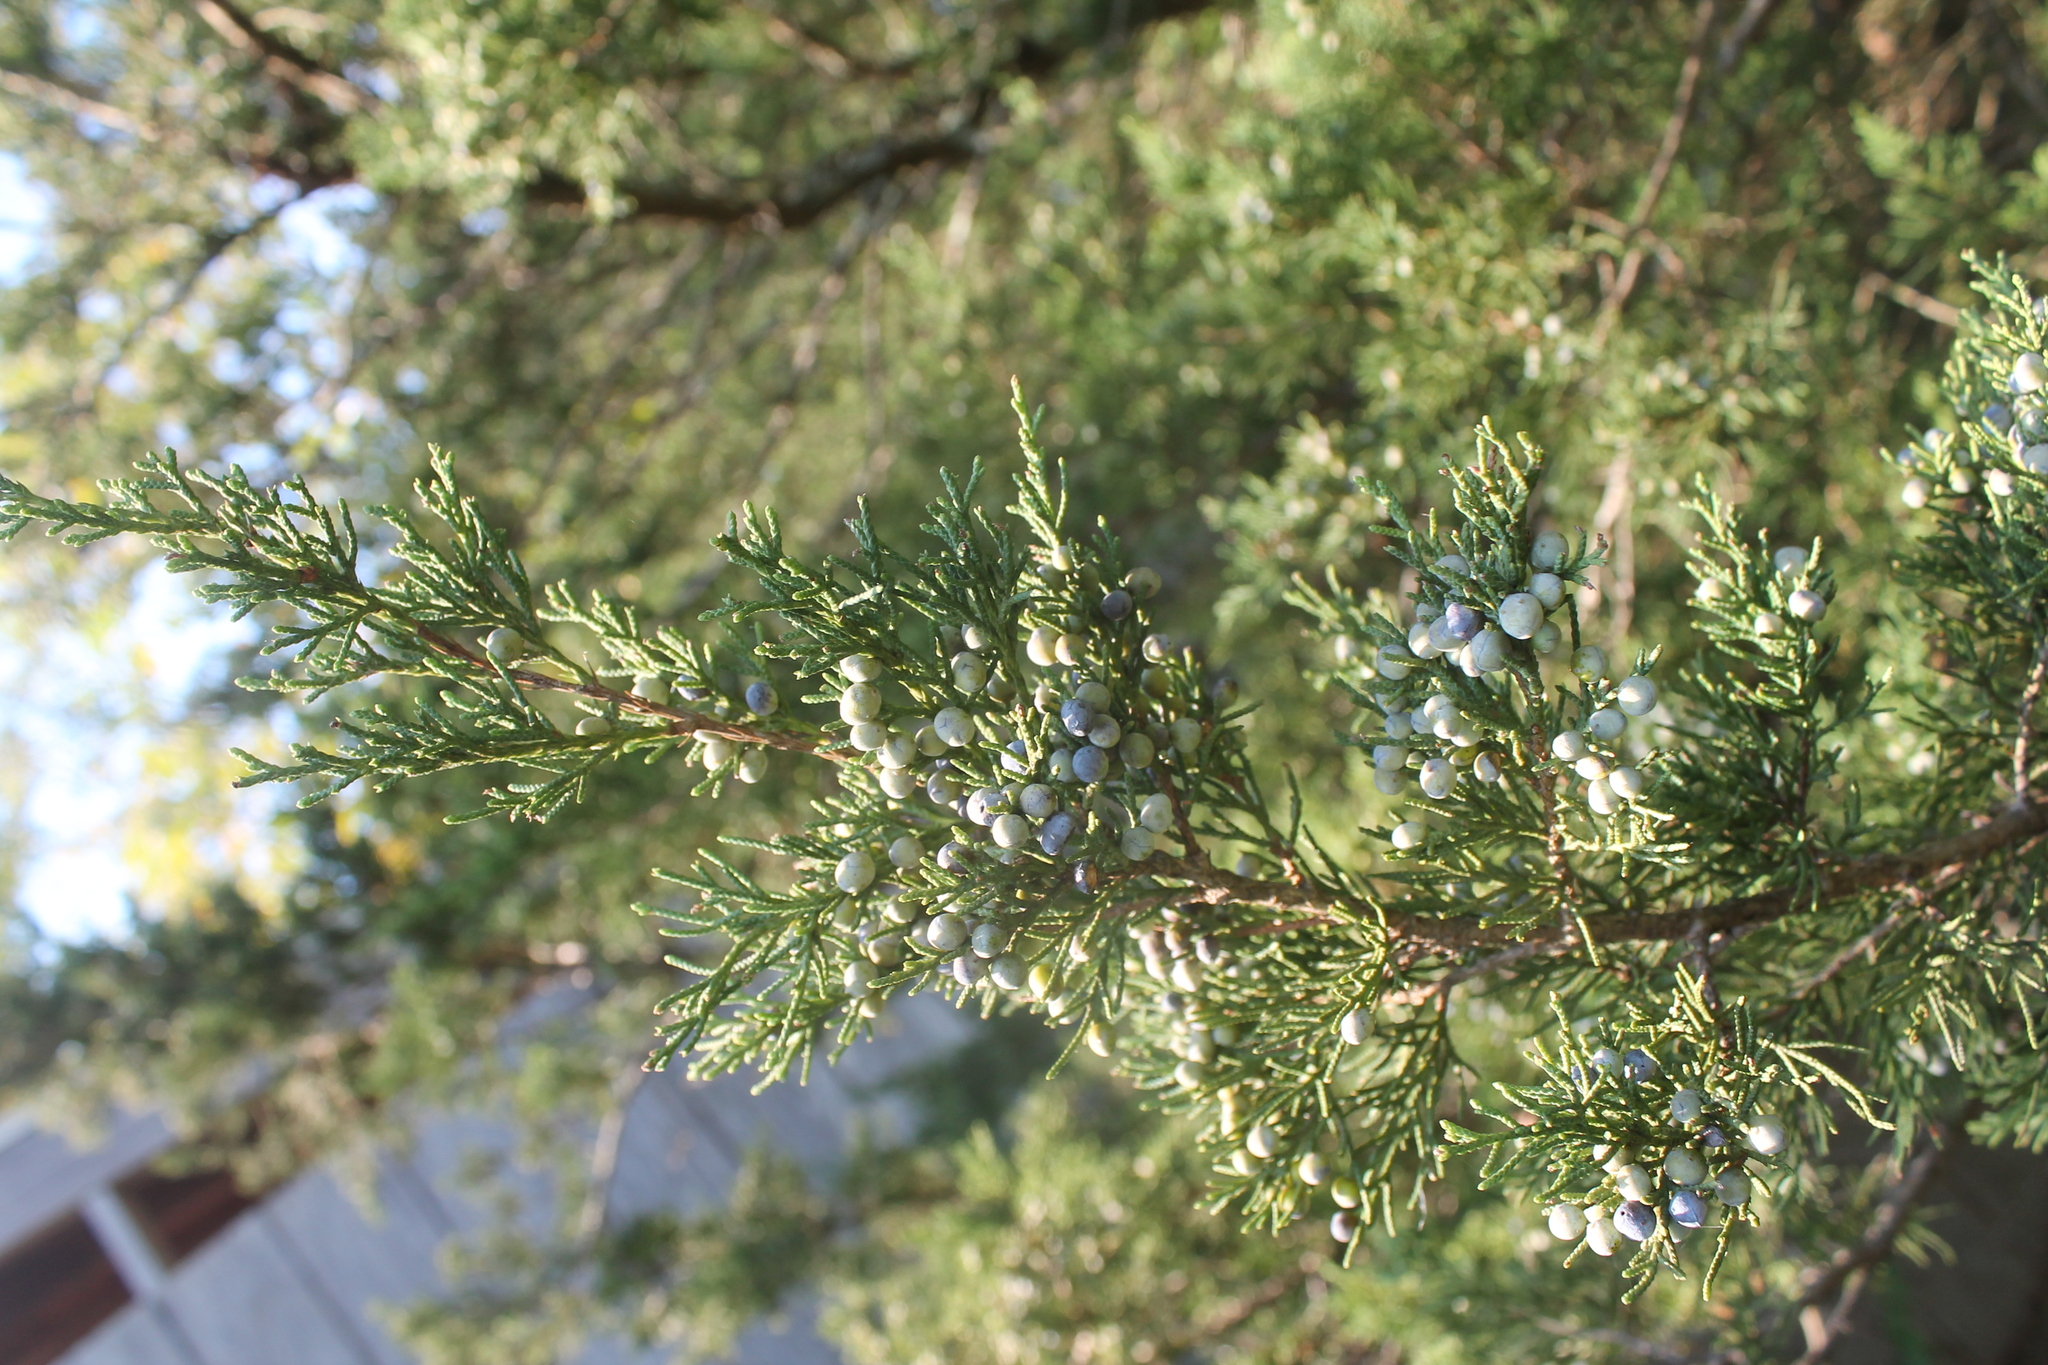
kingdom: Plantae
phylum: Tracheophyta
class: Pinopsida
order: Pinales
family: Cupressaceae
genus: Juniperus
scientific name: Juniperus virginiana
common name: Red juniper
